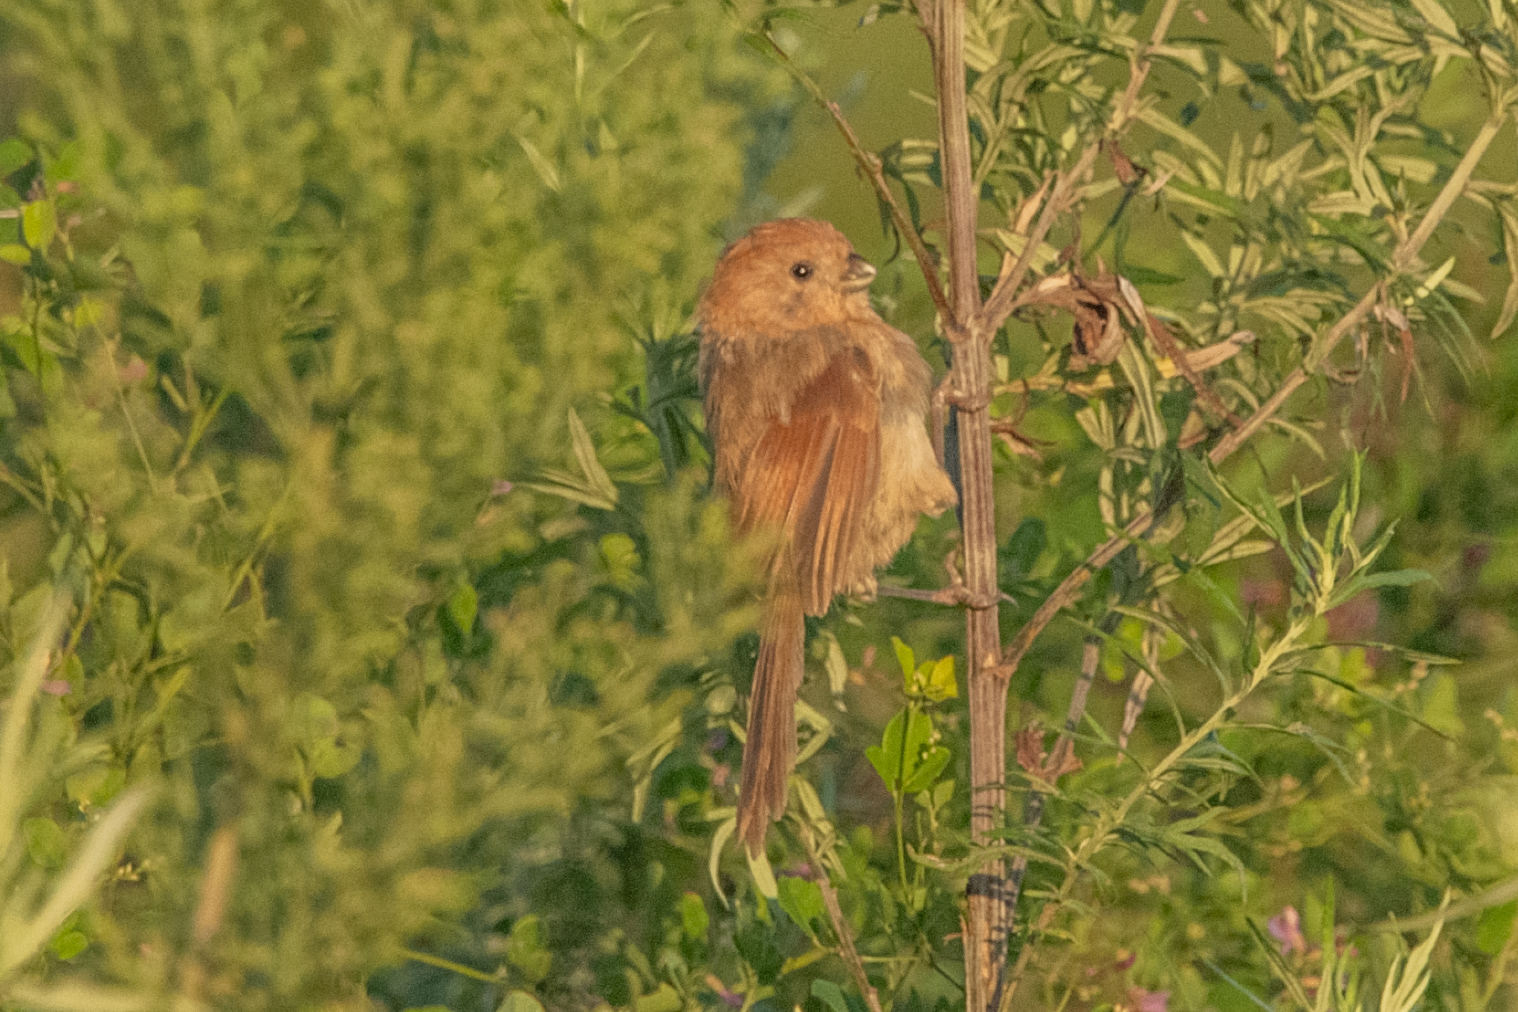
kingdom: Animalia
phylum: Chordata
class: Aves
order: Passeriformes
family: Sylviidae
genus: Sinosuthora
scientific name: Sinosuthora webbiana
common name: Vinous-throated parrotbill
